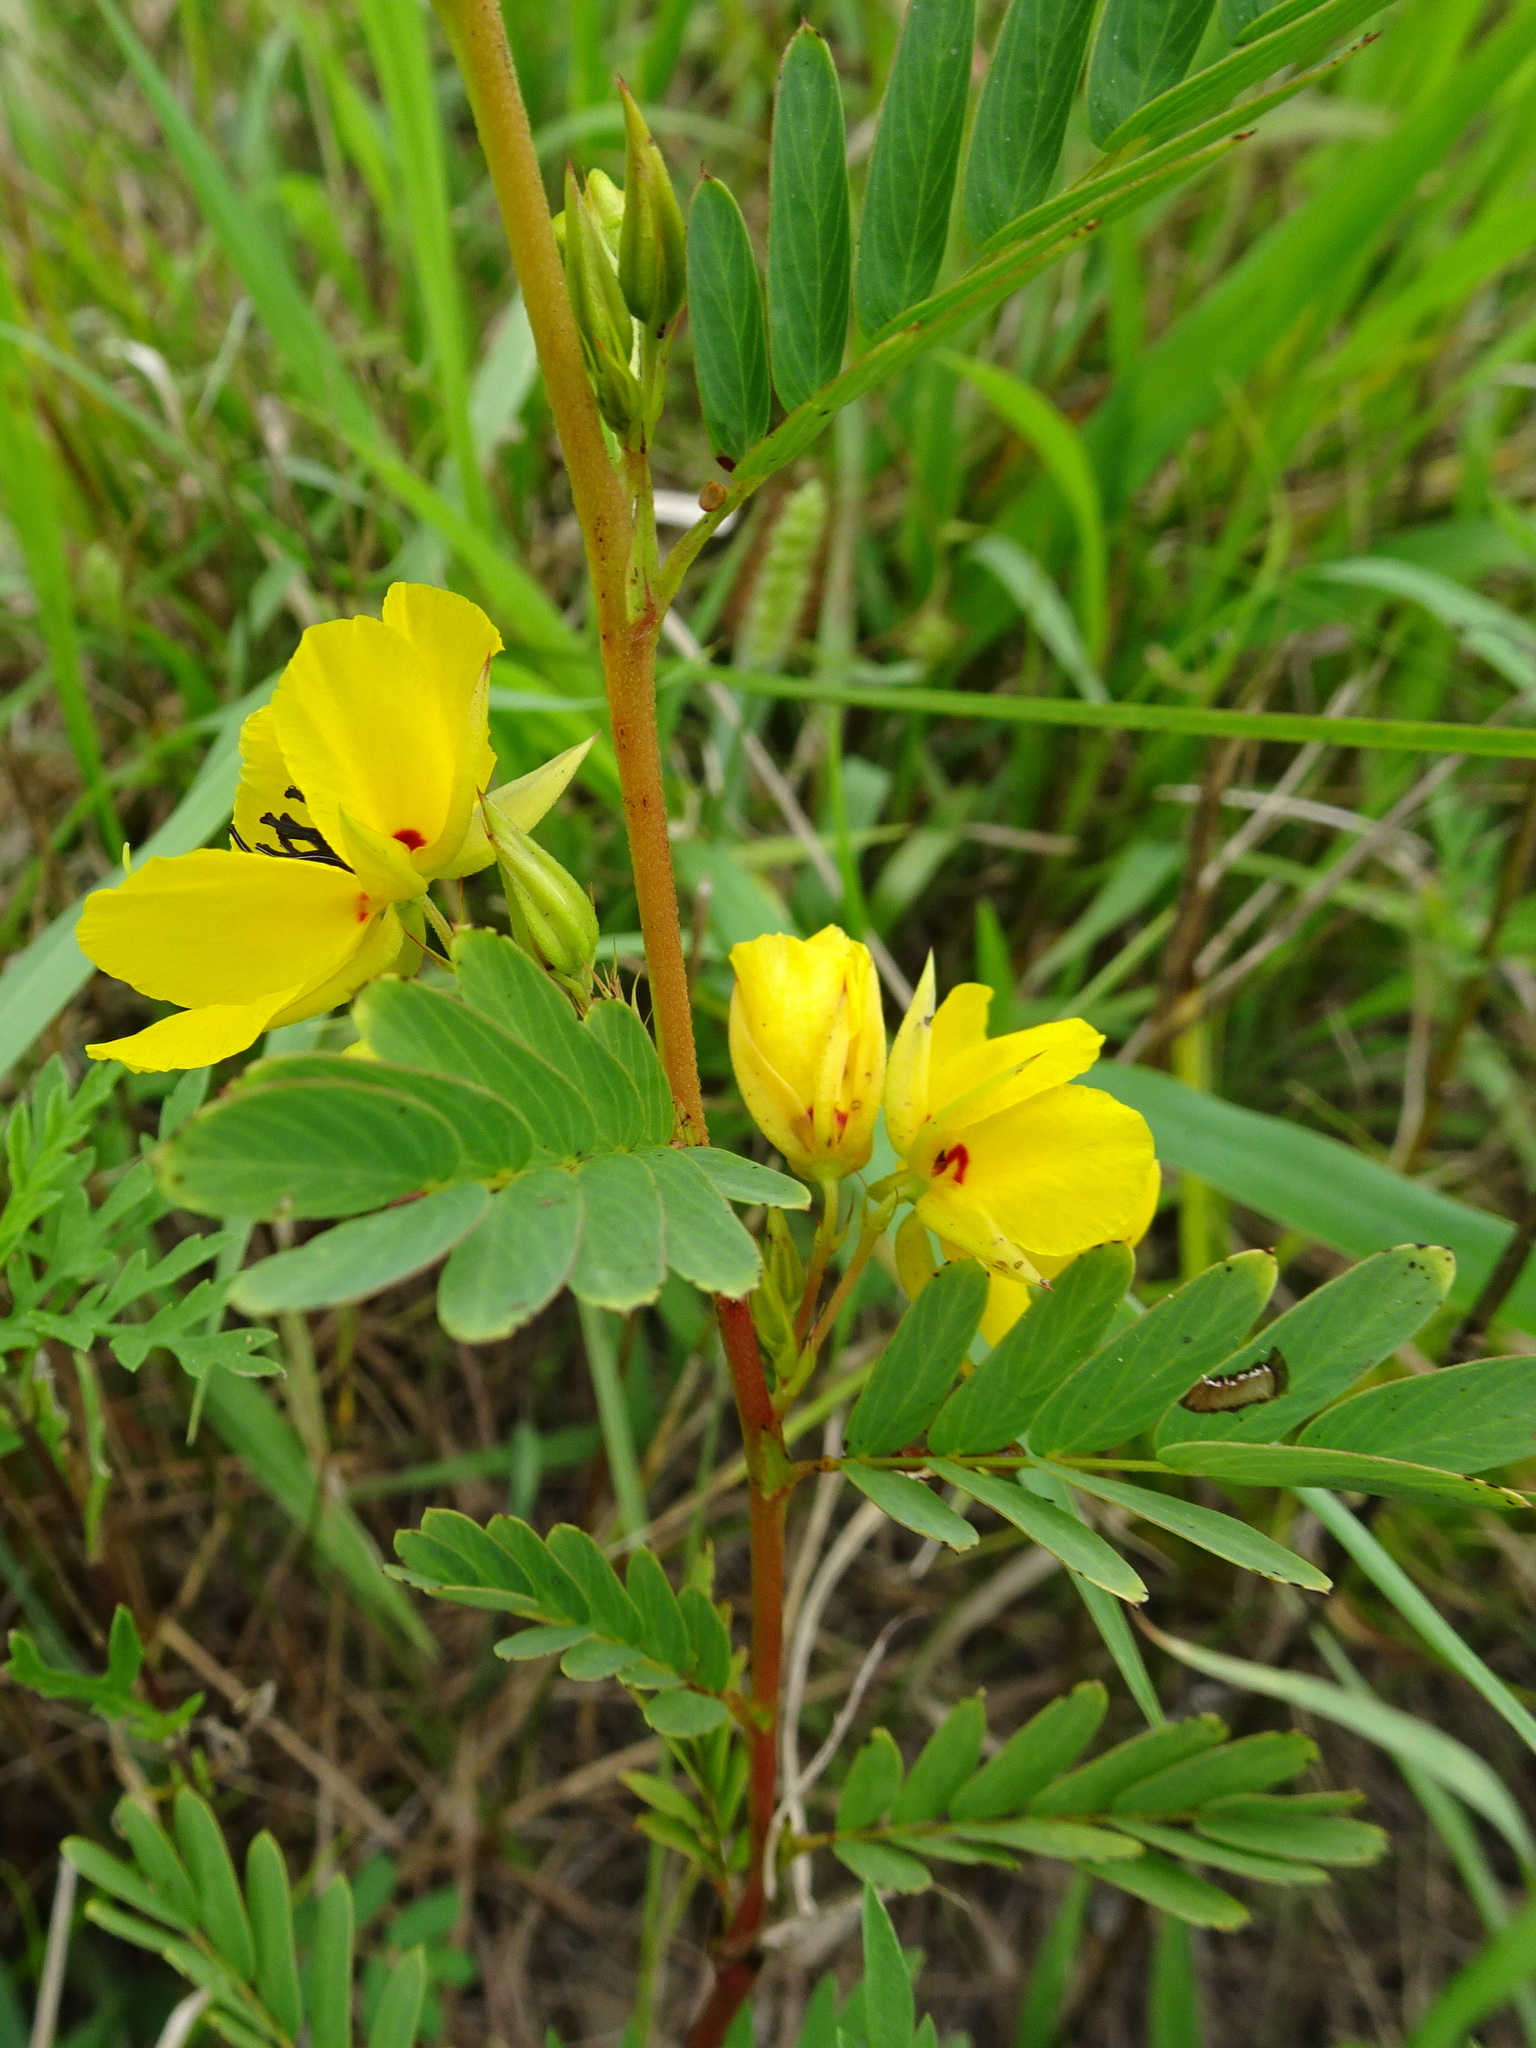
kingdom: Plantae
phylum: Tracheophyta
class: Magnoliopsida
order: Fabales
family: Fabaceae
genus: Chamaecrista
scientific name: Chamaecrista fasciculata
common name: Golden cassia
